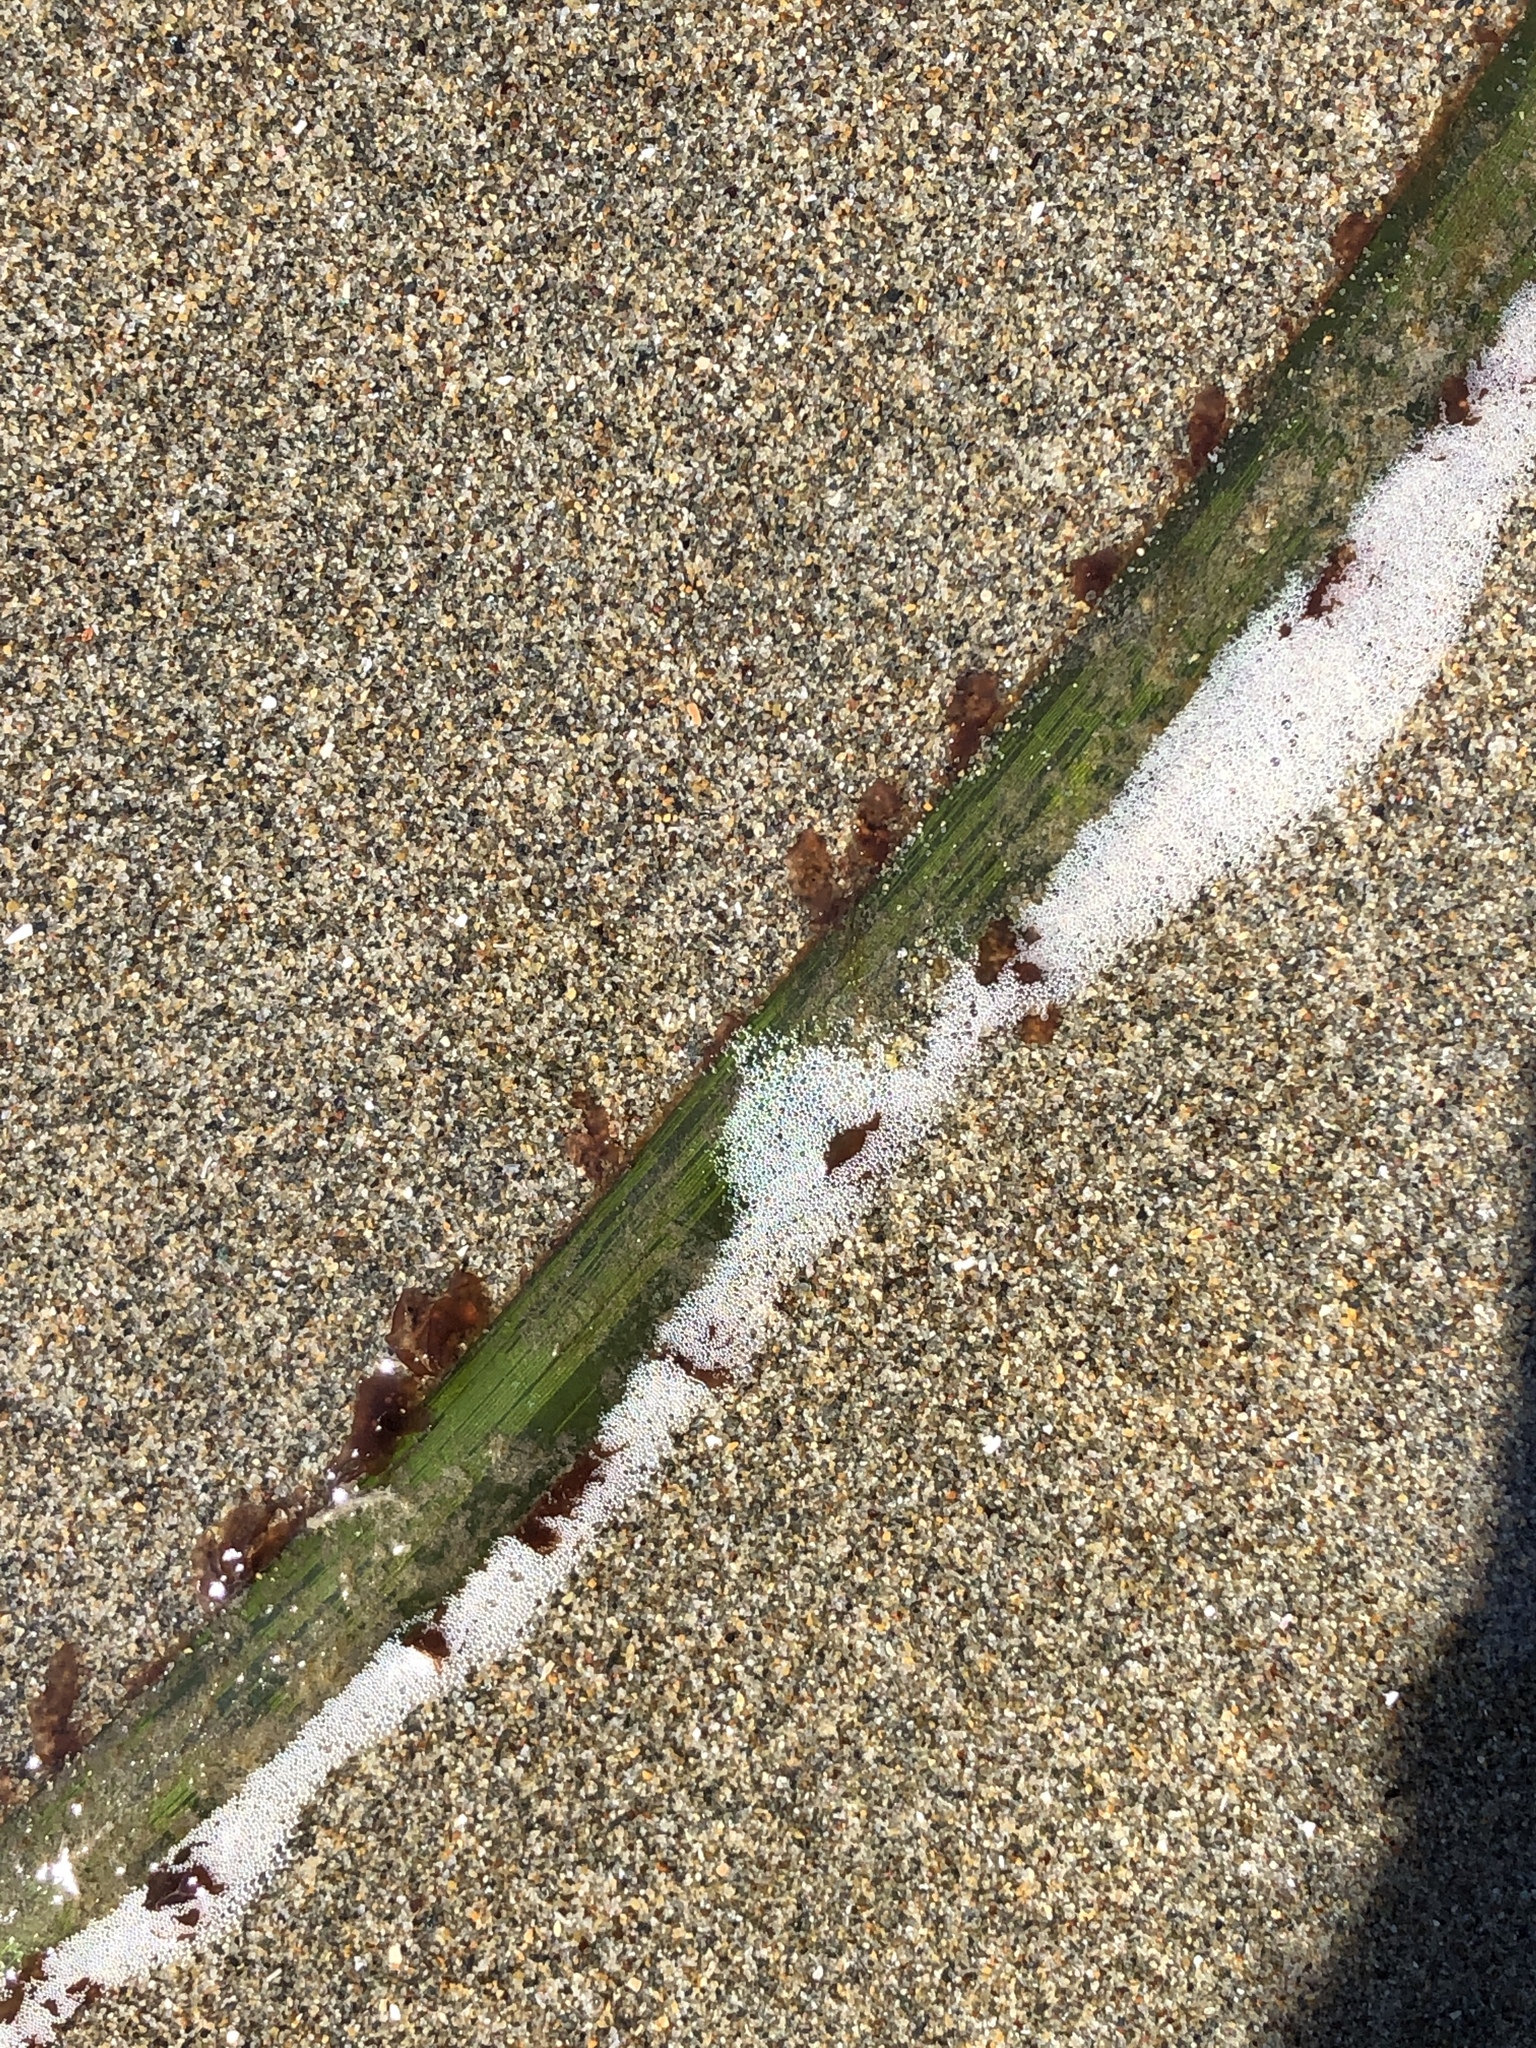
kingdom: Plantae
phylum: Rhodophyta
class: Compsopogonophyceae
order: Erythropeltidales
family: Erythrotrichiaceae
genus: Smithora
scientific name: Smithora naiadum
